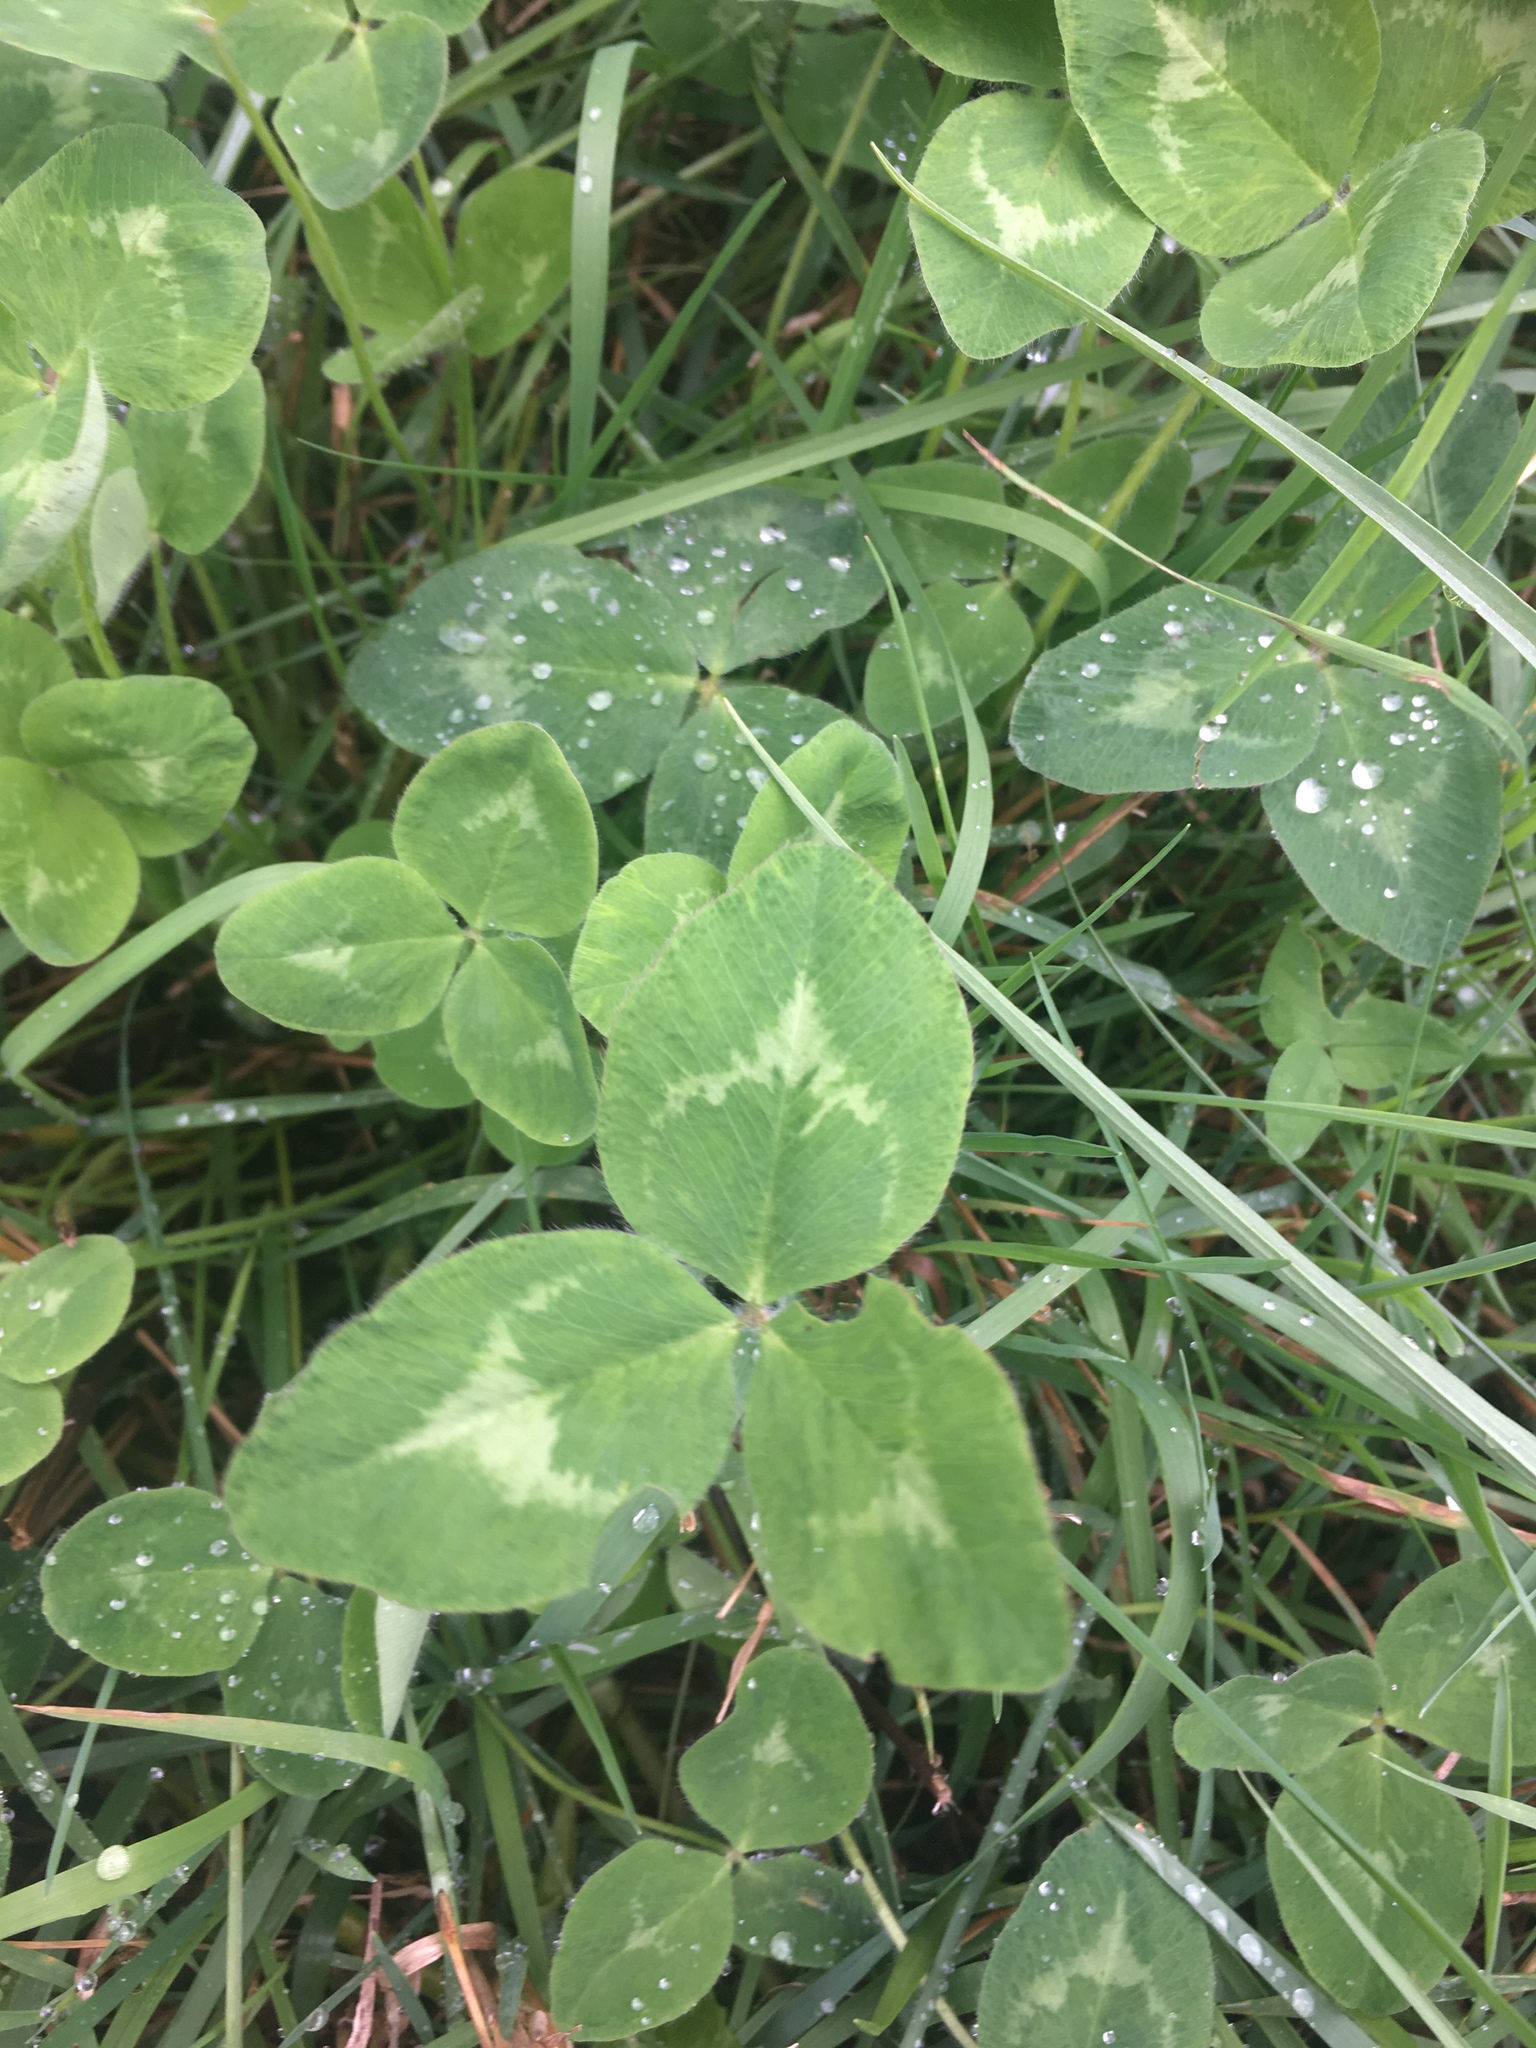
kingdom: Plantae
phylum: Tracheophyta
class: Magnoliopsida
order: Fabales
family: Fabaceae
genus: Trifolium
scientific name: Trifolium pratense
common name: Red clover
